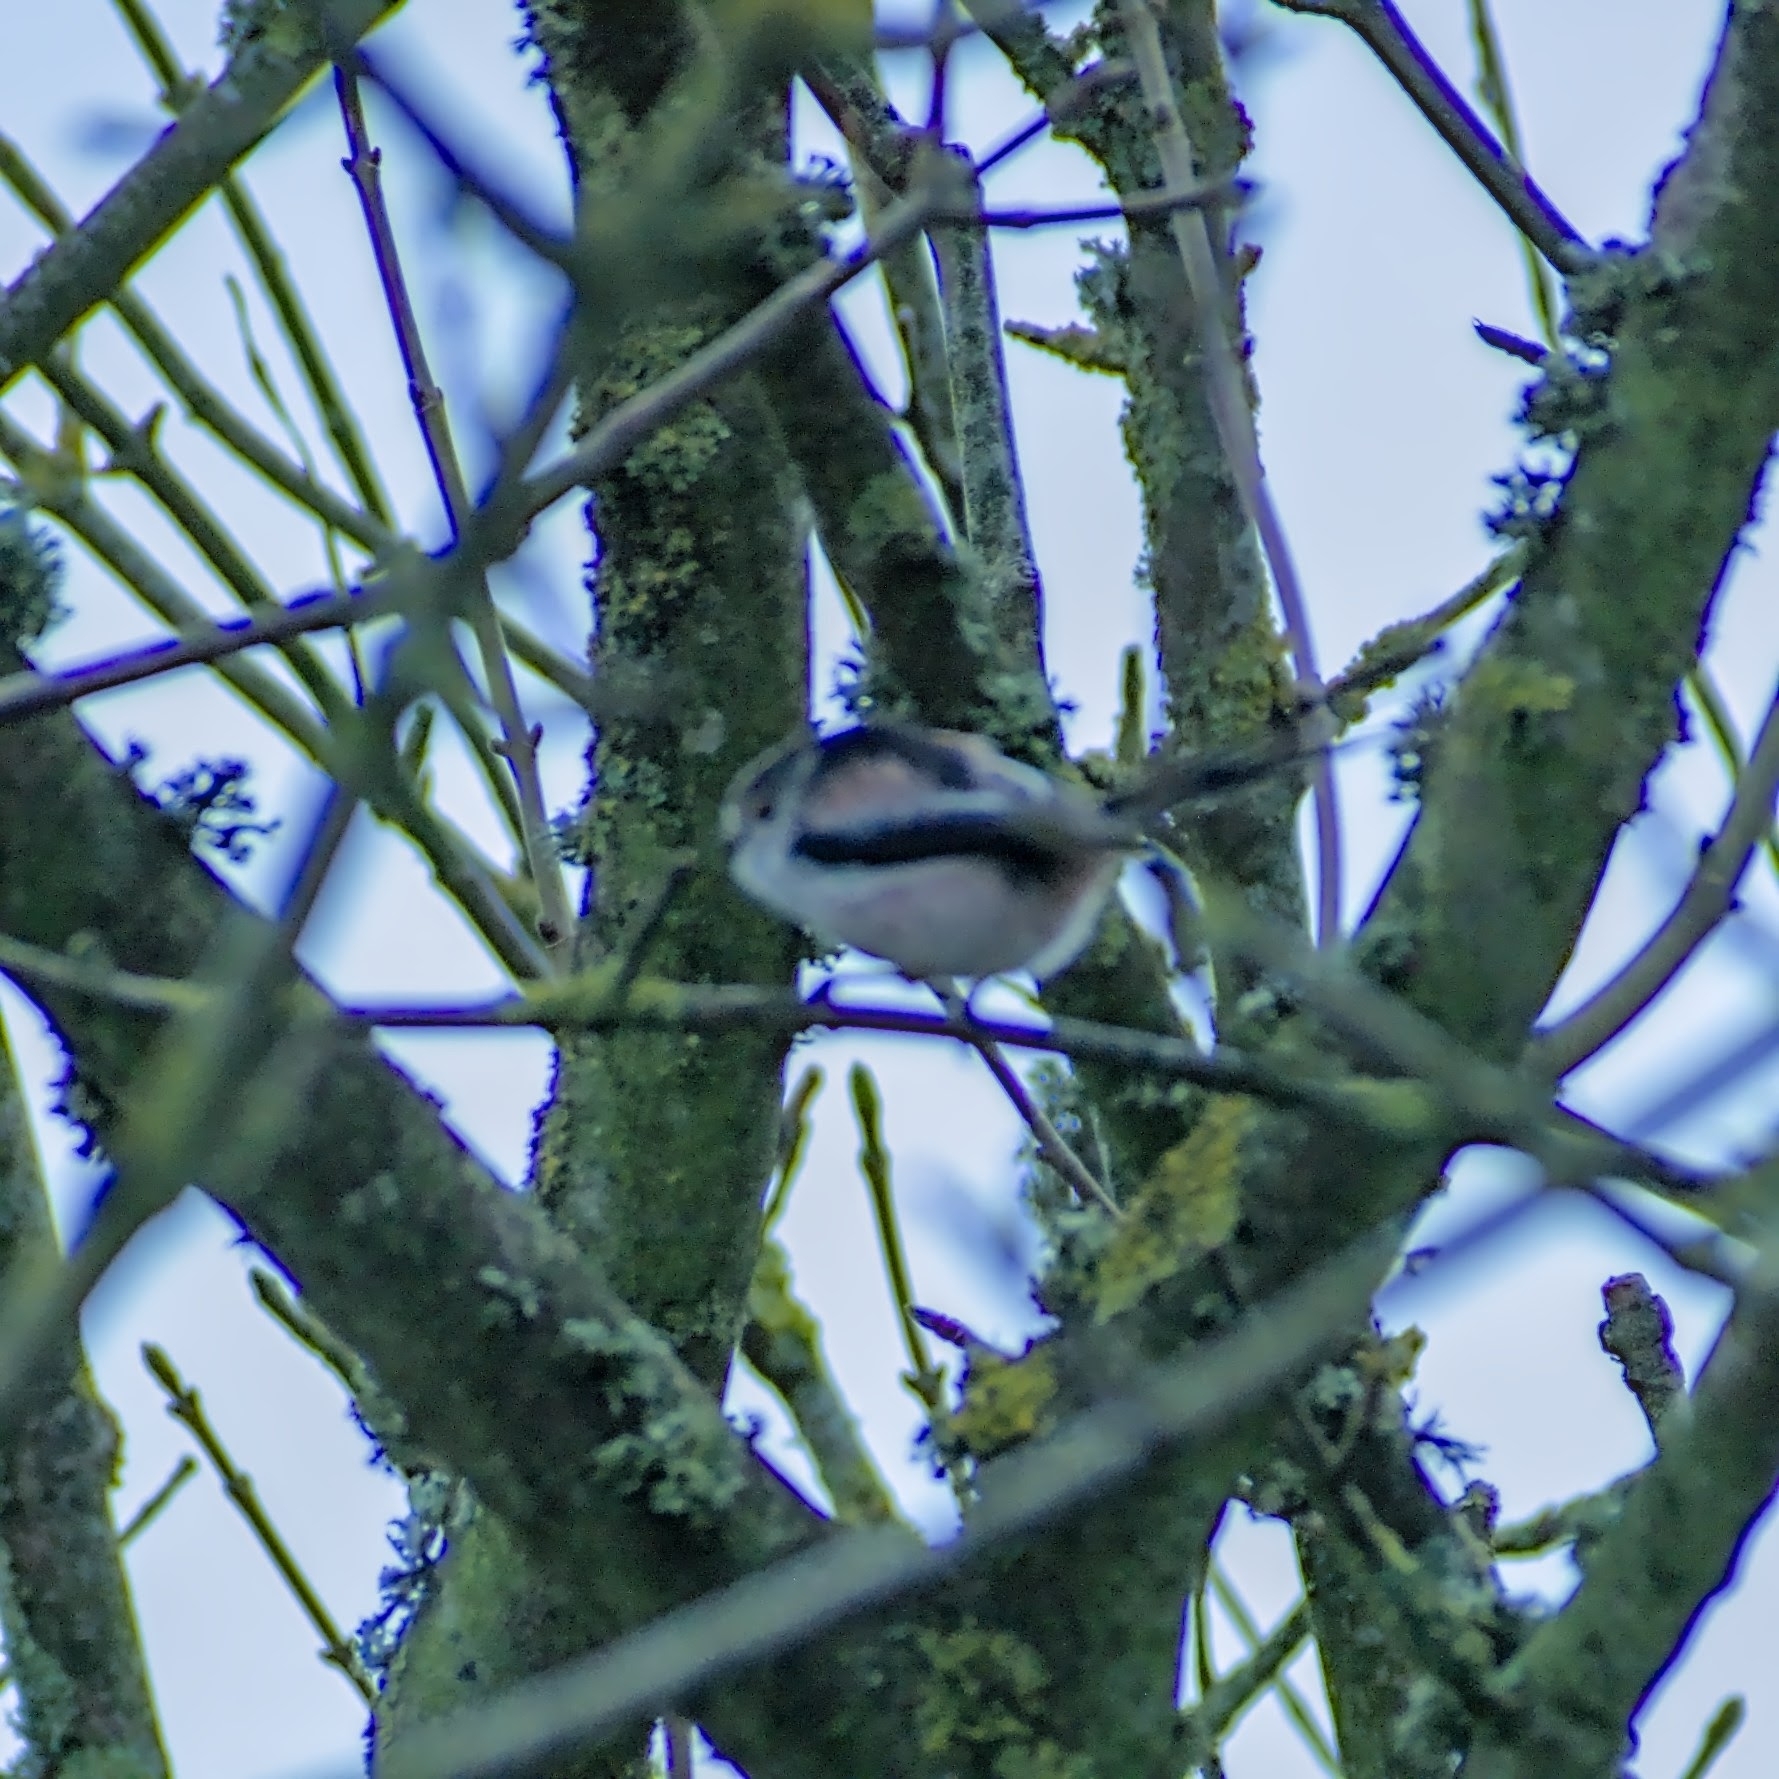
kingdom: Animalia
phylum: Chordata
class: Aves
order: Passeriformes
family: Aegithalidae
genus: Aegithalos
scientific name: Aegithalos caudatus
